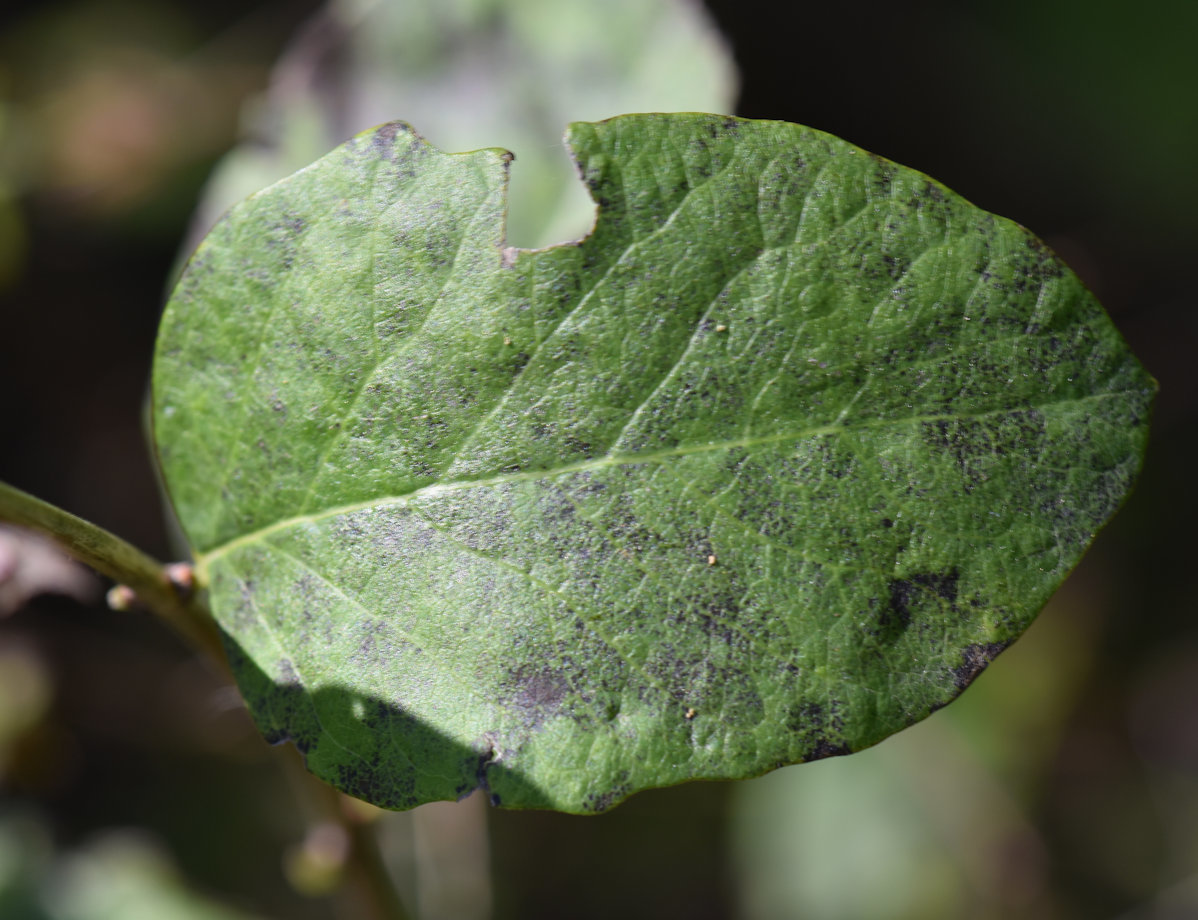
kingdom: Plantae
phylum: Tracheophyta
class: Magnoliopsida
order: Dipsacales
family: Caprifoliaceae
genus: Symphoricarpos
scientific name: Symphoricarpos albus
